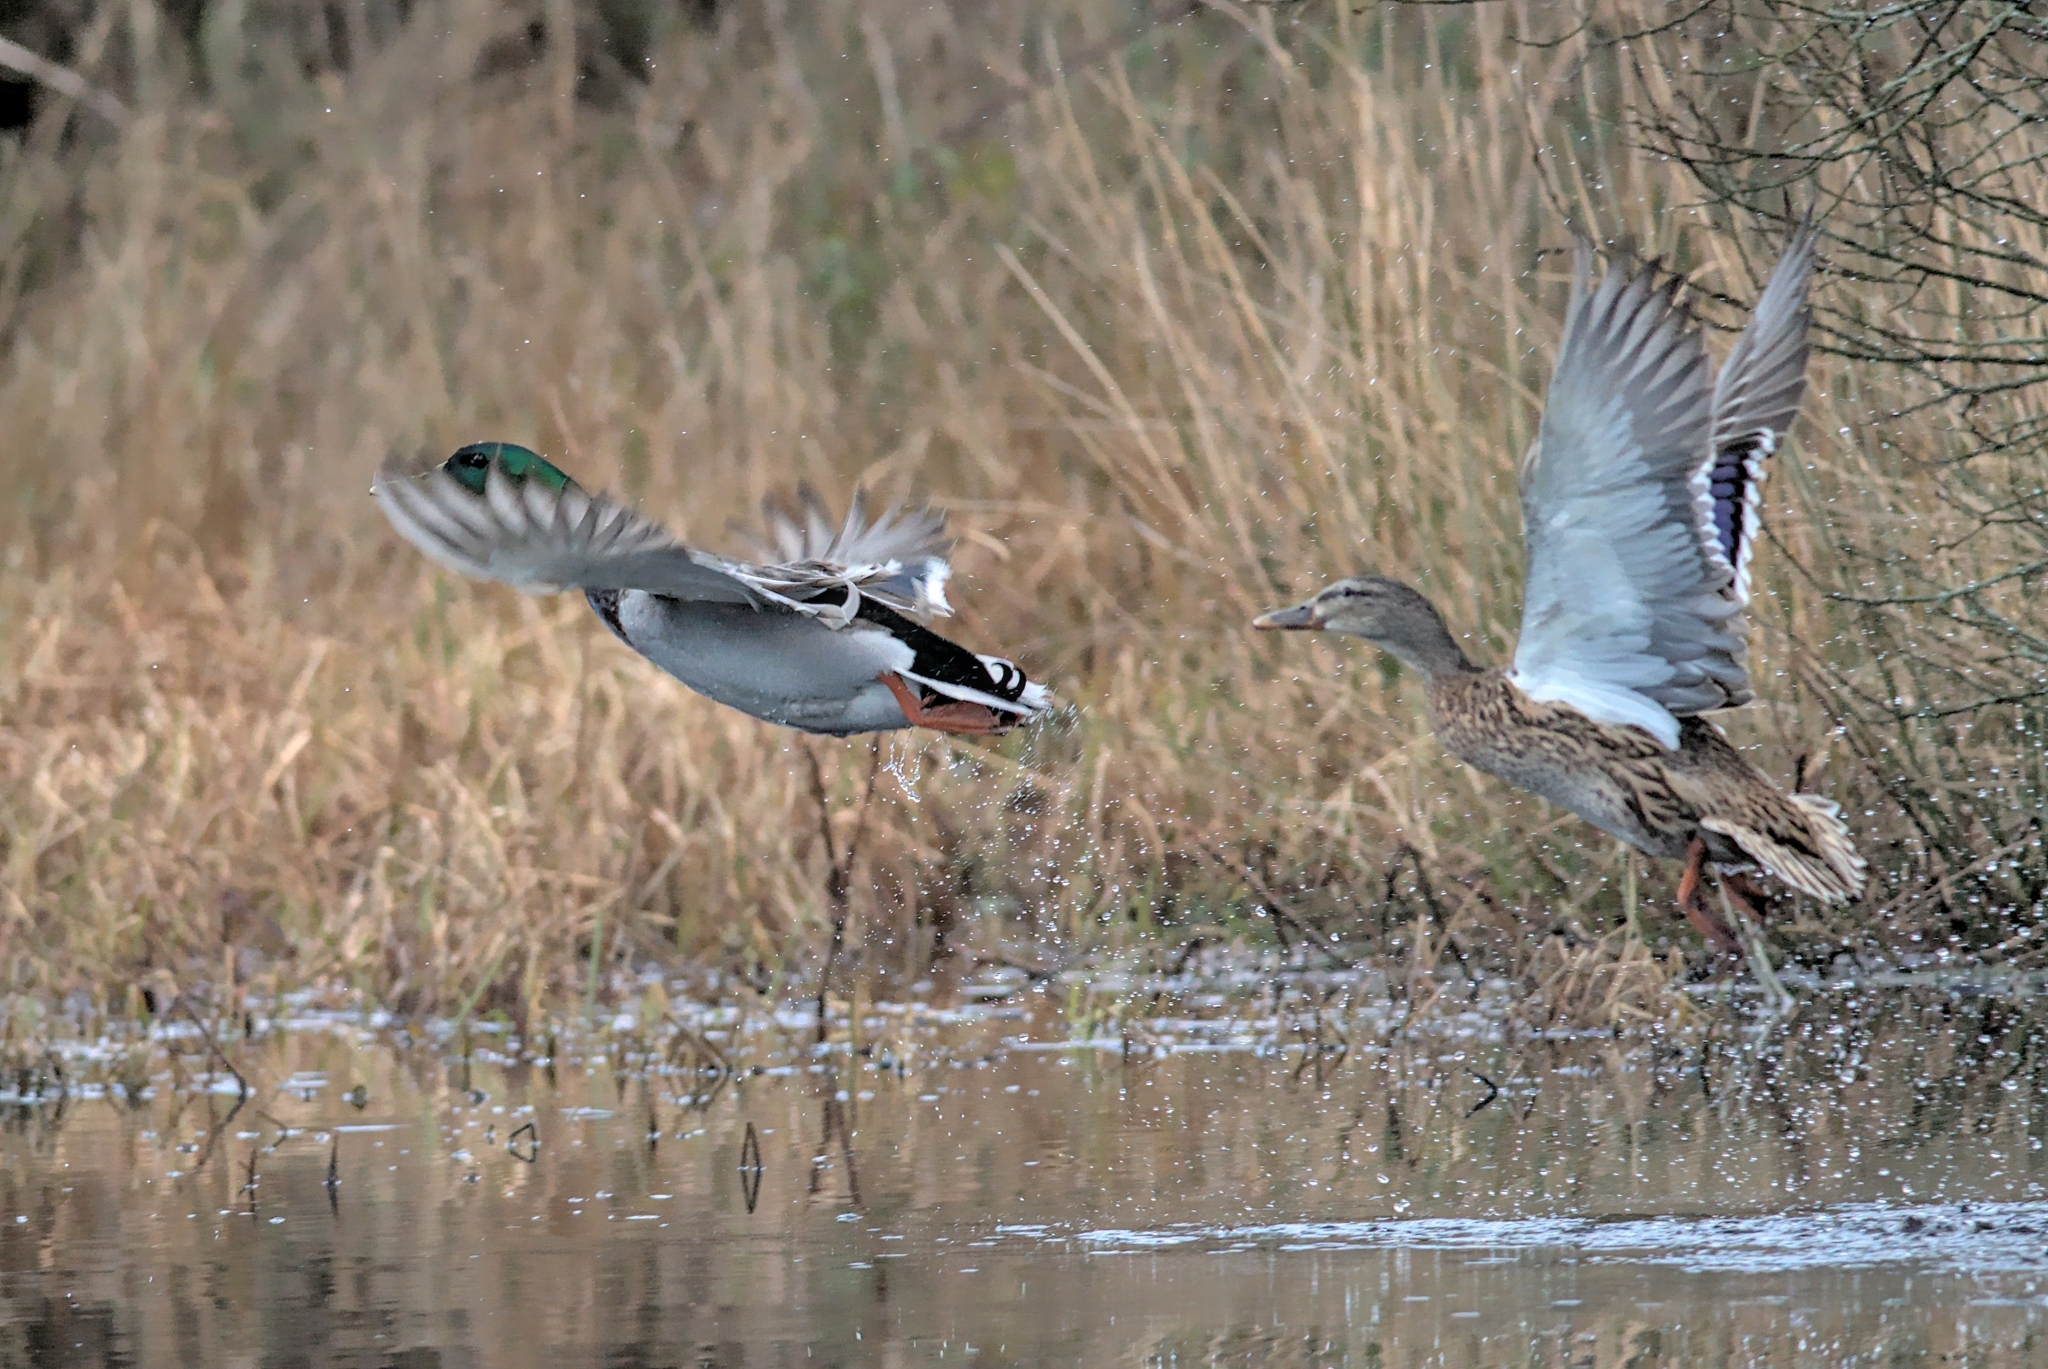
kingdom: Animalia
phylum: Chordata
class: Aves
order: Anseriformes
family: Anatidae
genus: Anas
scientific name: Anas platyrhynchos
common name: Mallard
